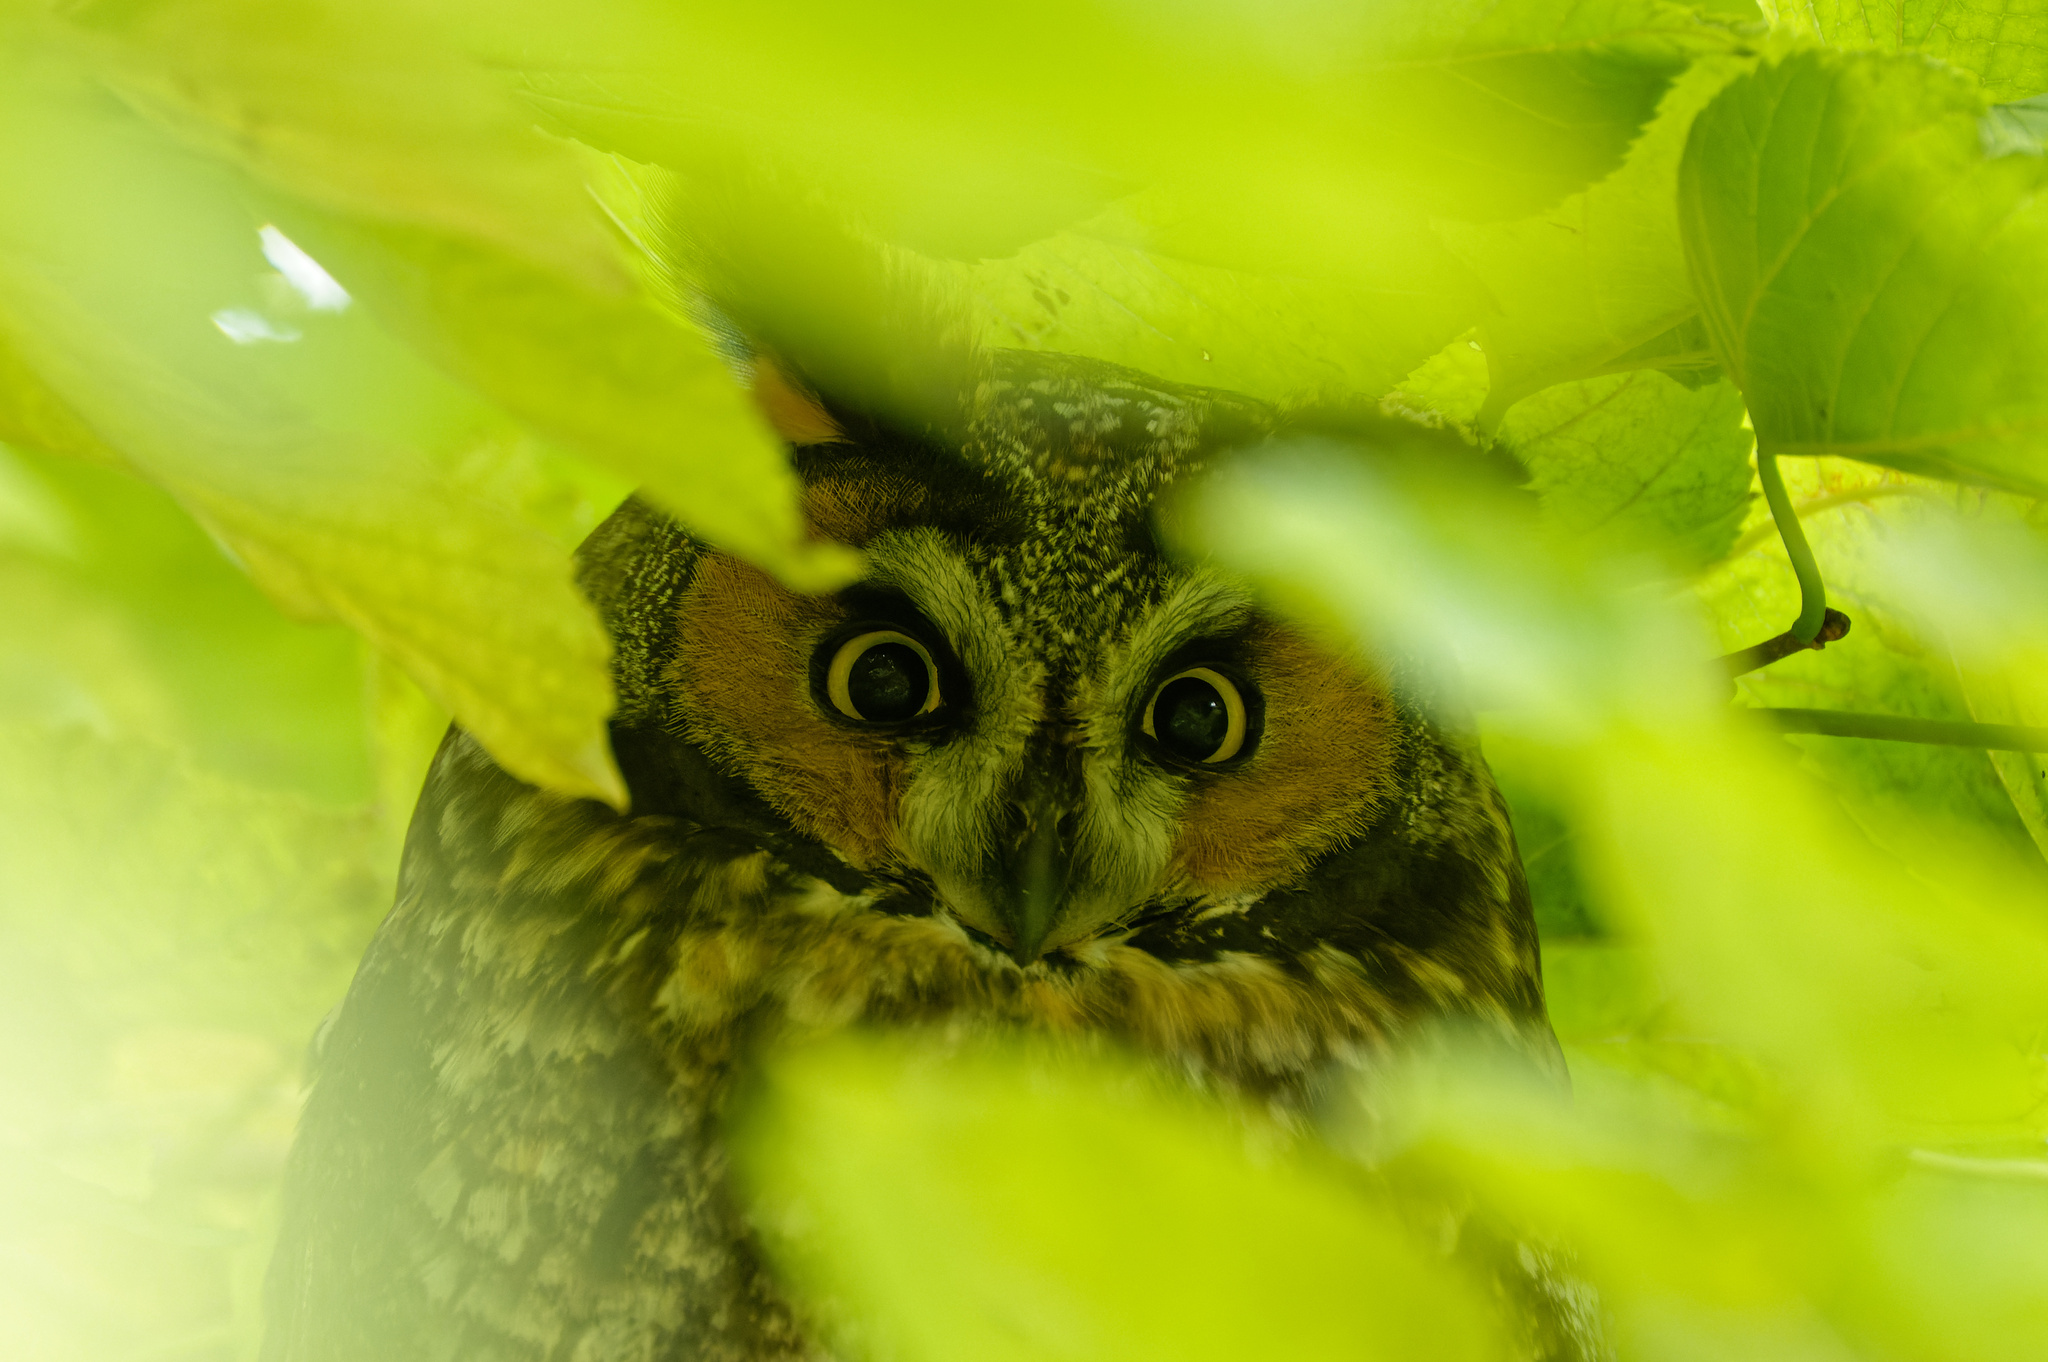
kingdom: Animalia
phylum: Chordata
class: Aves
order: Strigiformes
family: Strigidae
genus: Asio
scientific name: Asio otus
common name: Long-eared owl
